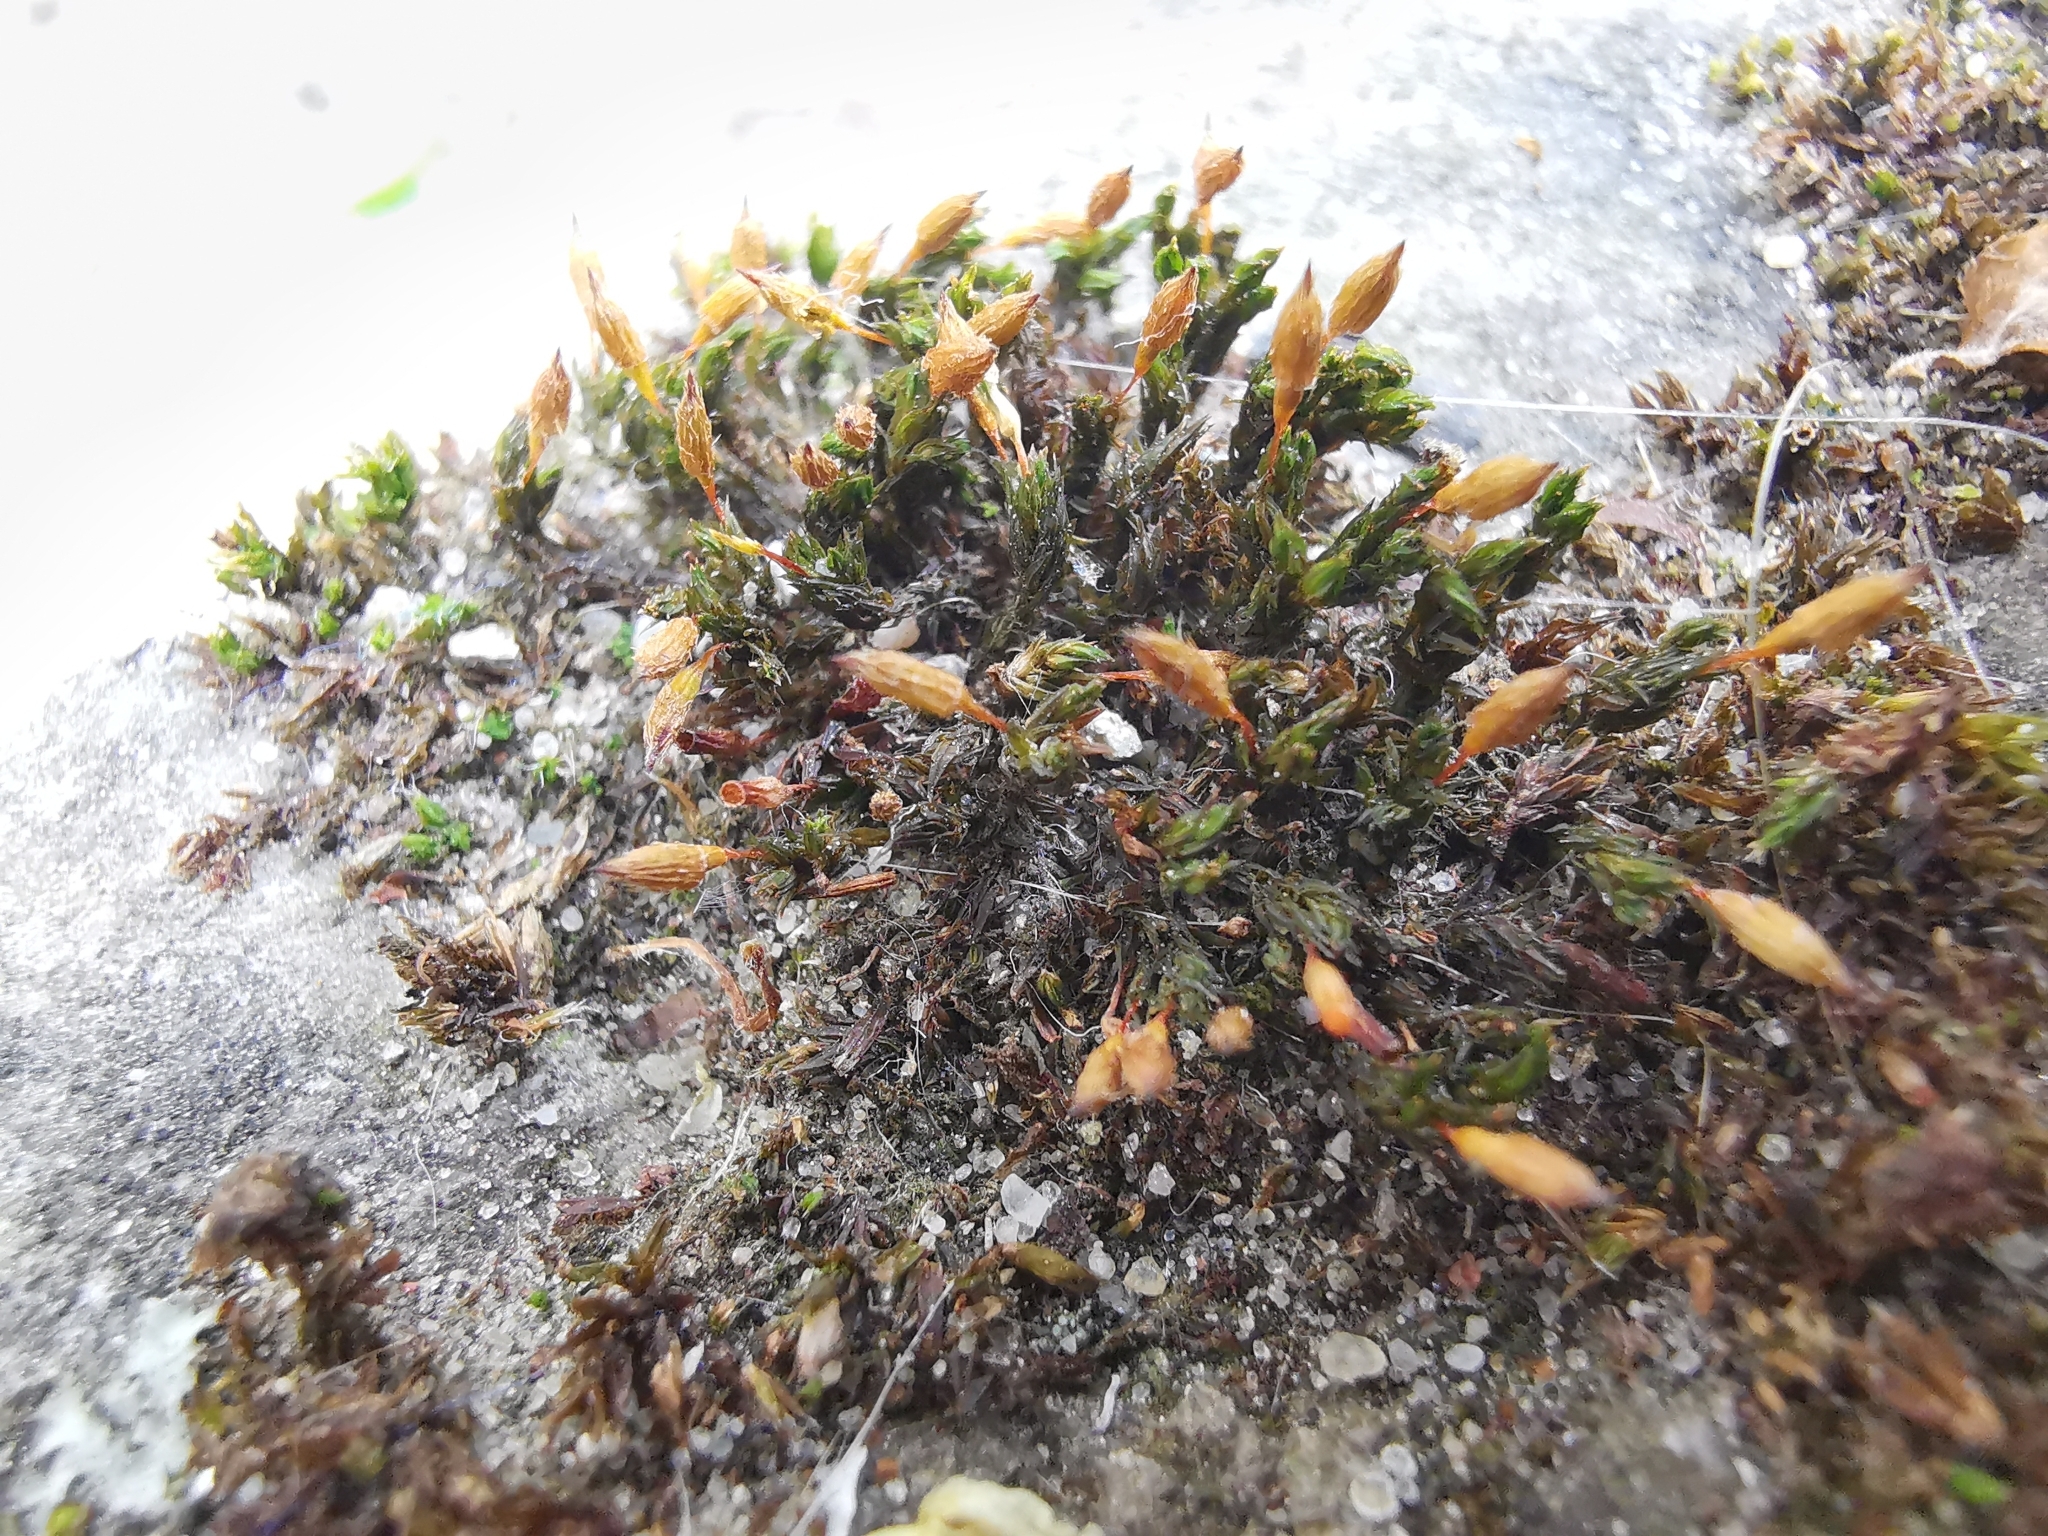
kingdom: Plantae
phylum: Bryophyta
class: Bryopsida
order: Orthotrichales
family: Orthotrichaceae
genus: Orthotrichum
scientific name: Orthotrichum anomalum
